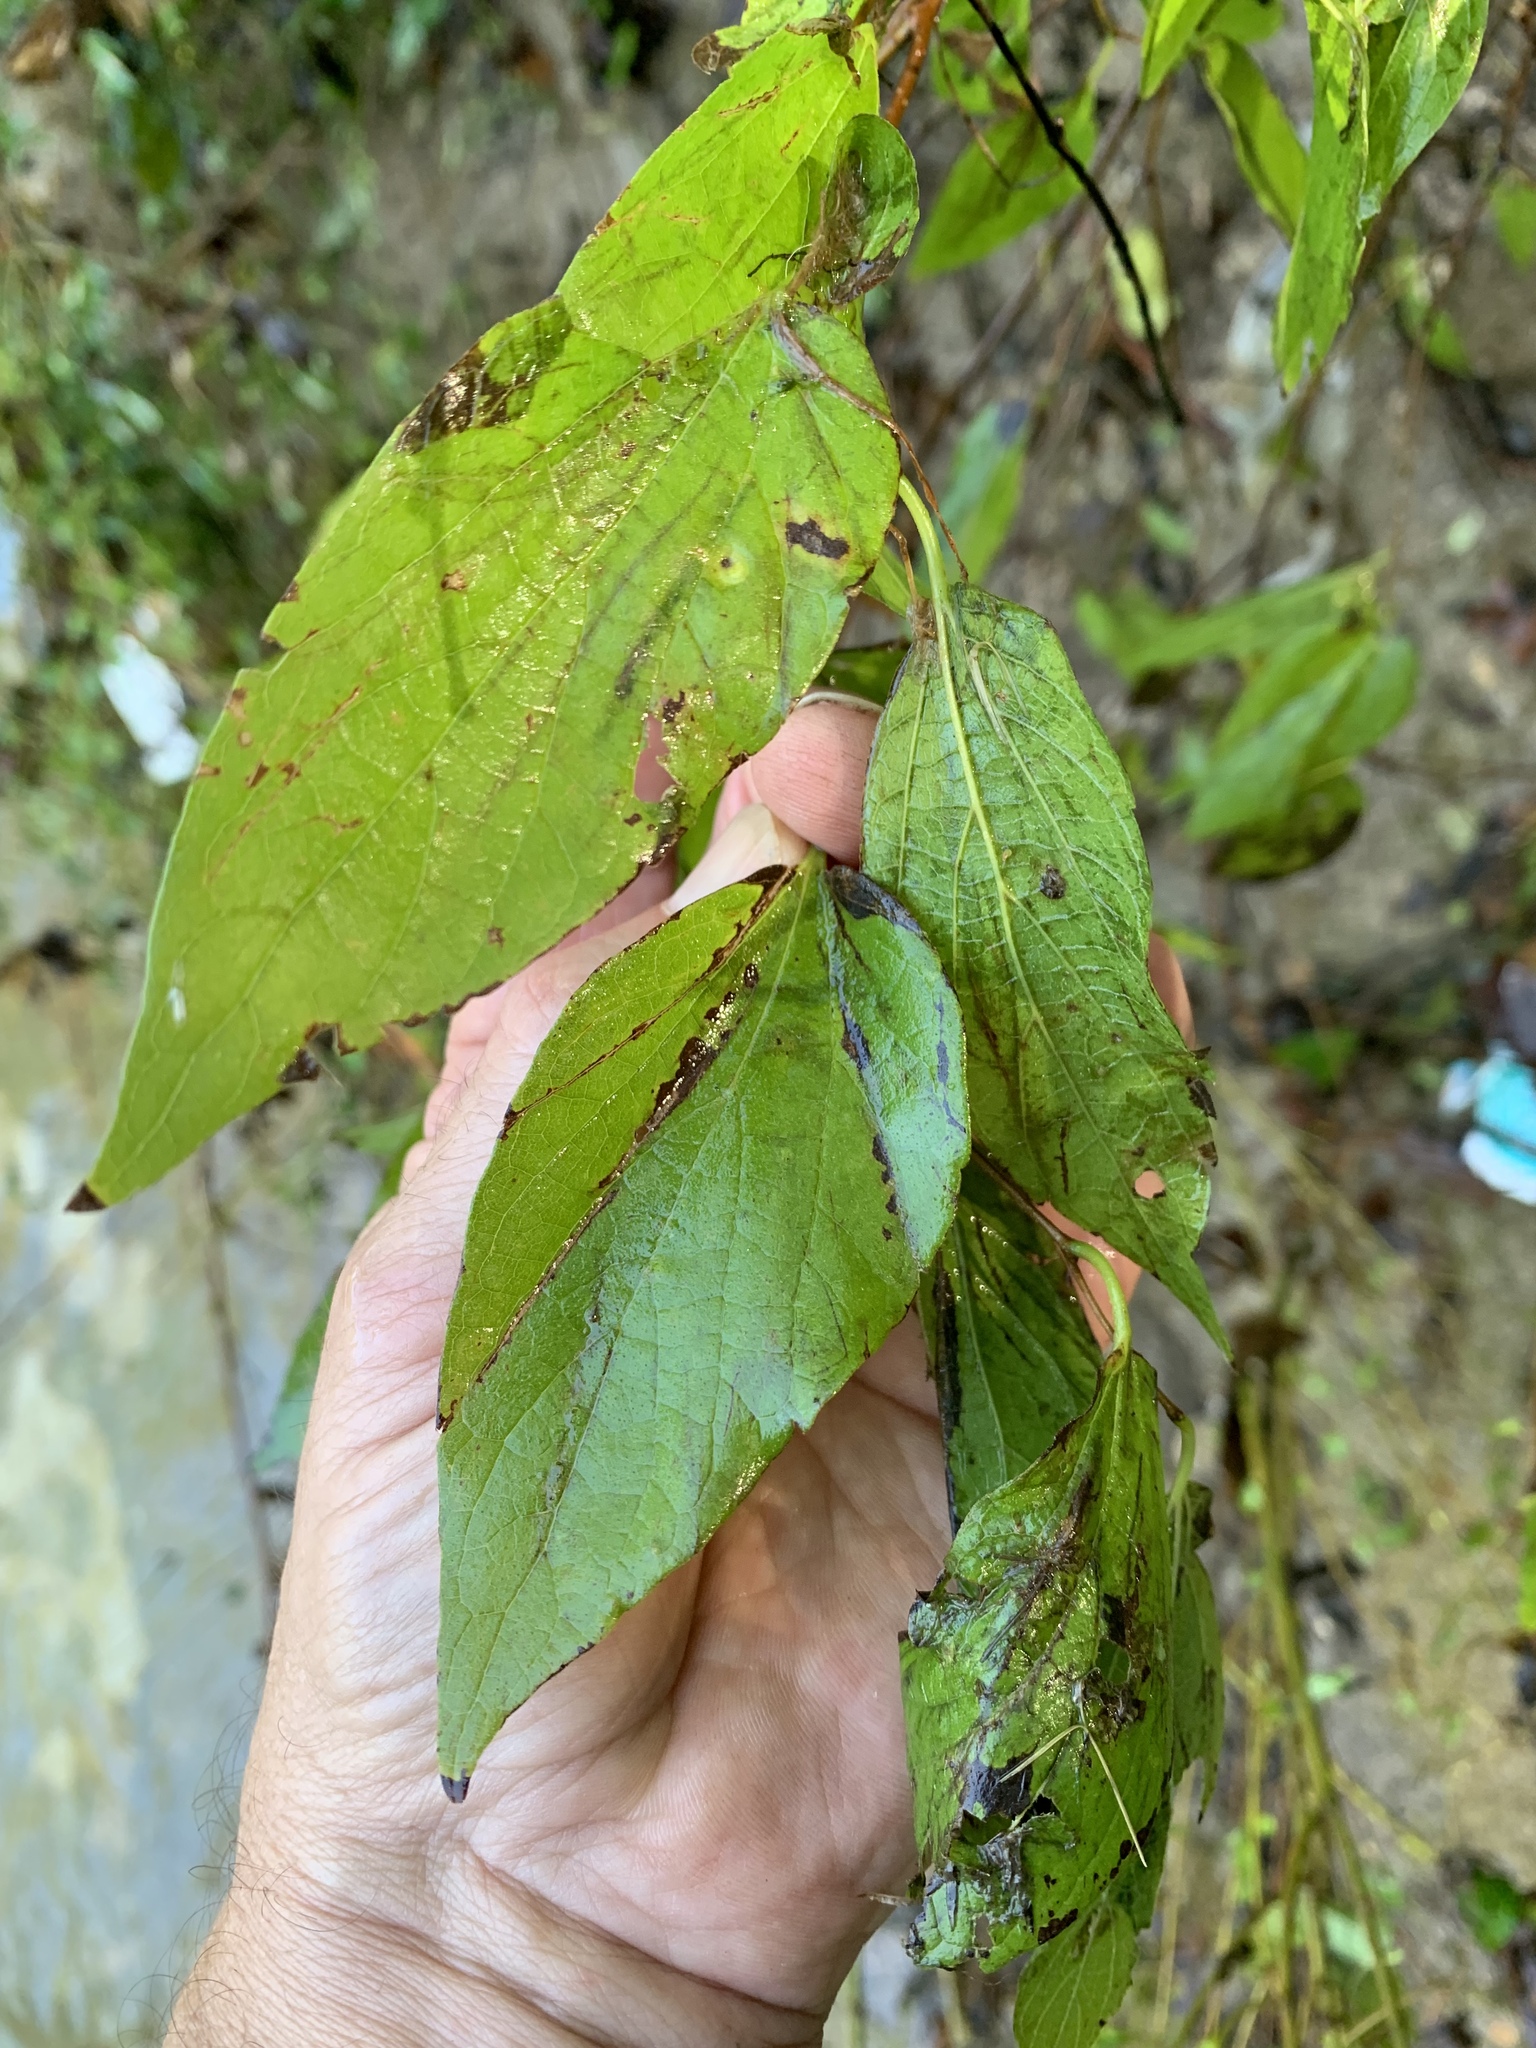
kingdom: Plantae
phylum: Tracheophyta
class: Magnoliopsida
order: Rosales
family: Cannabaceae
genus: Celtis
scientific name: Celtis laevigata
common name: Sugarberry
